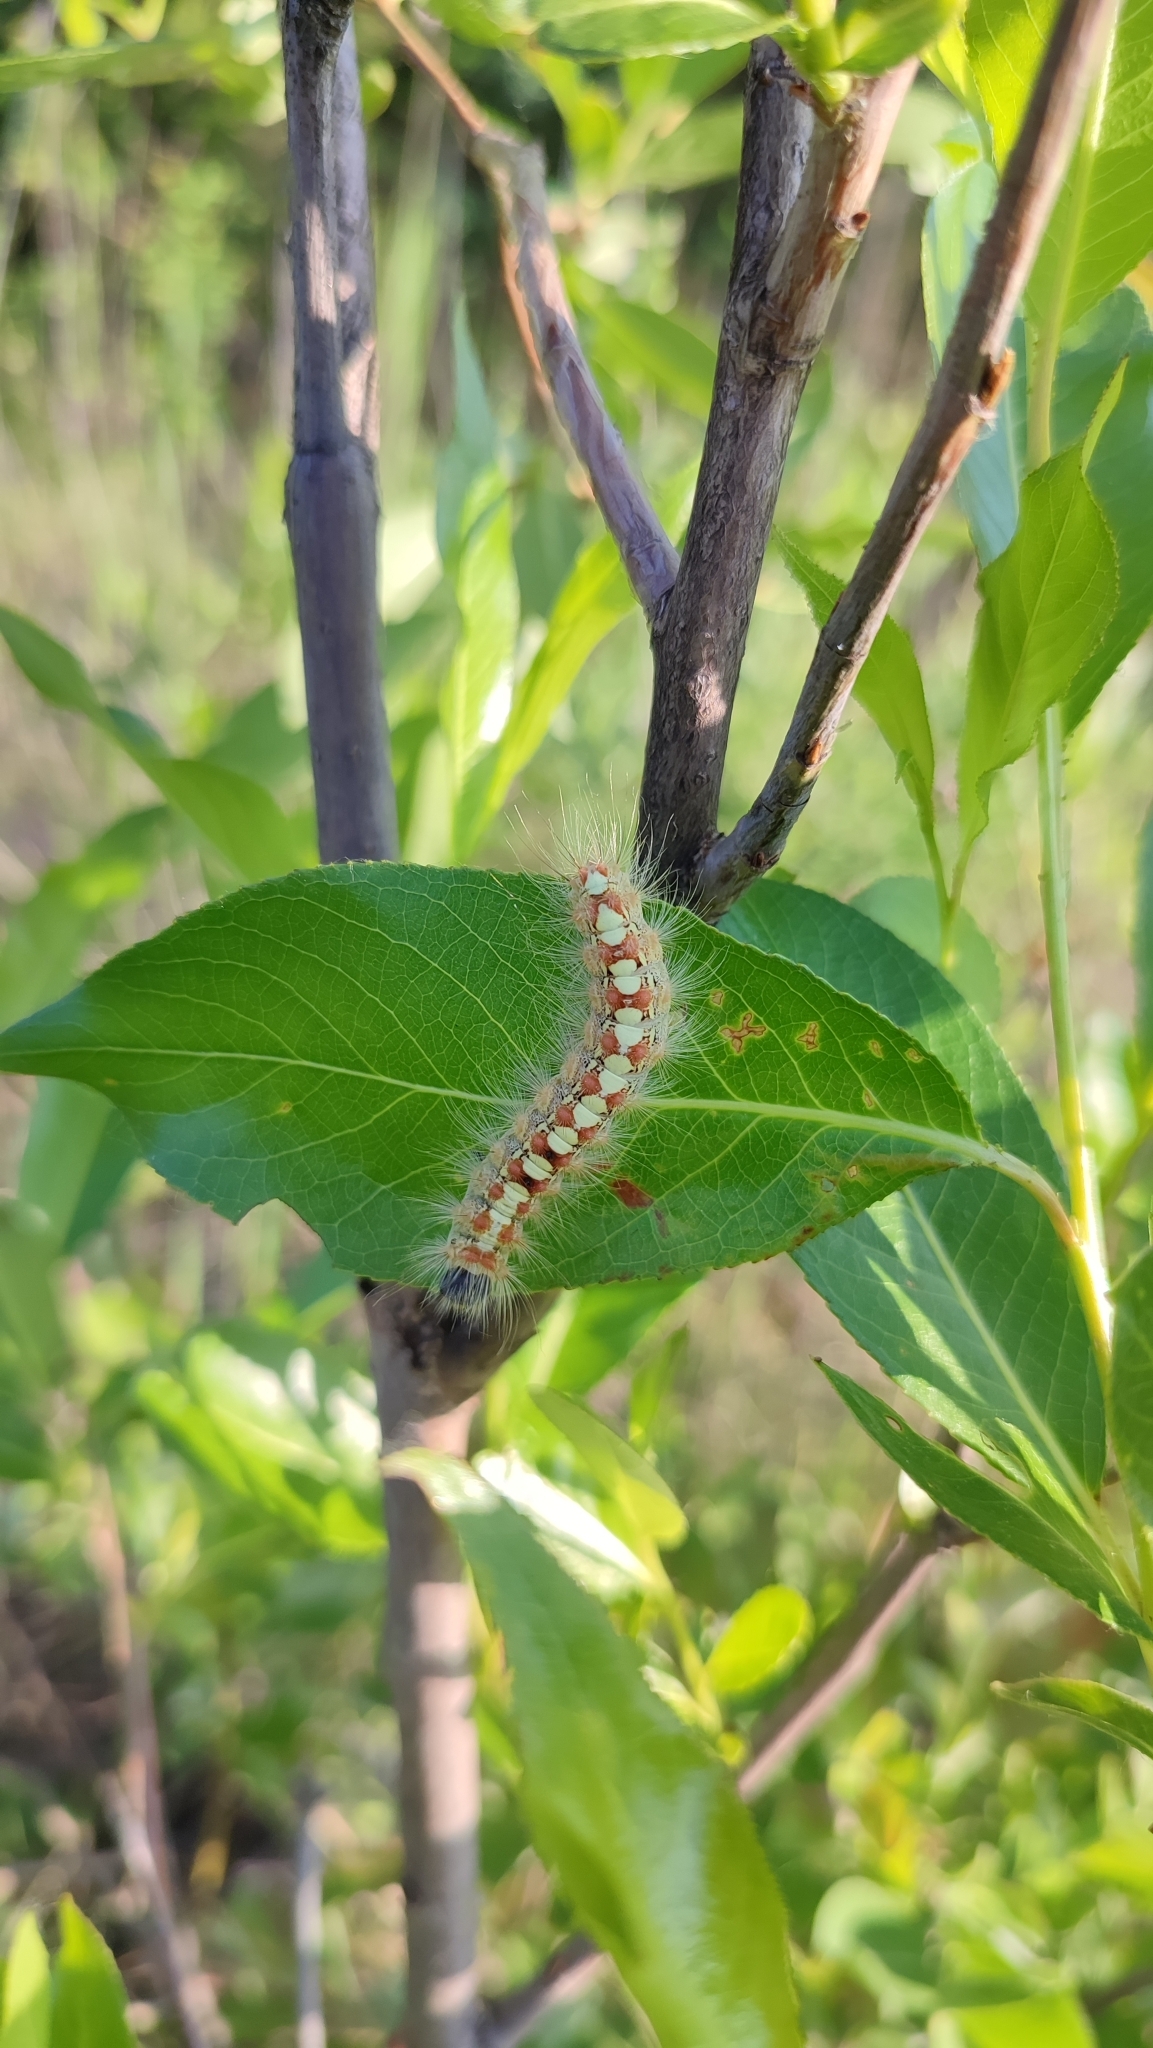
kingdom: Animalia
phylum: Arthropoda
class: Insecta
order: Lepidoptera
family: Erebidae
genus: Leucoma
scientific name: Leucoma salicis
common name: White satin moth
